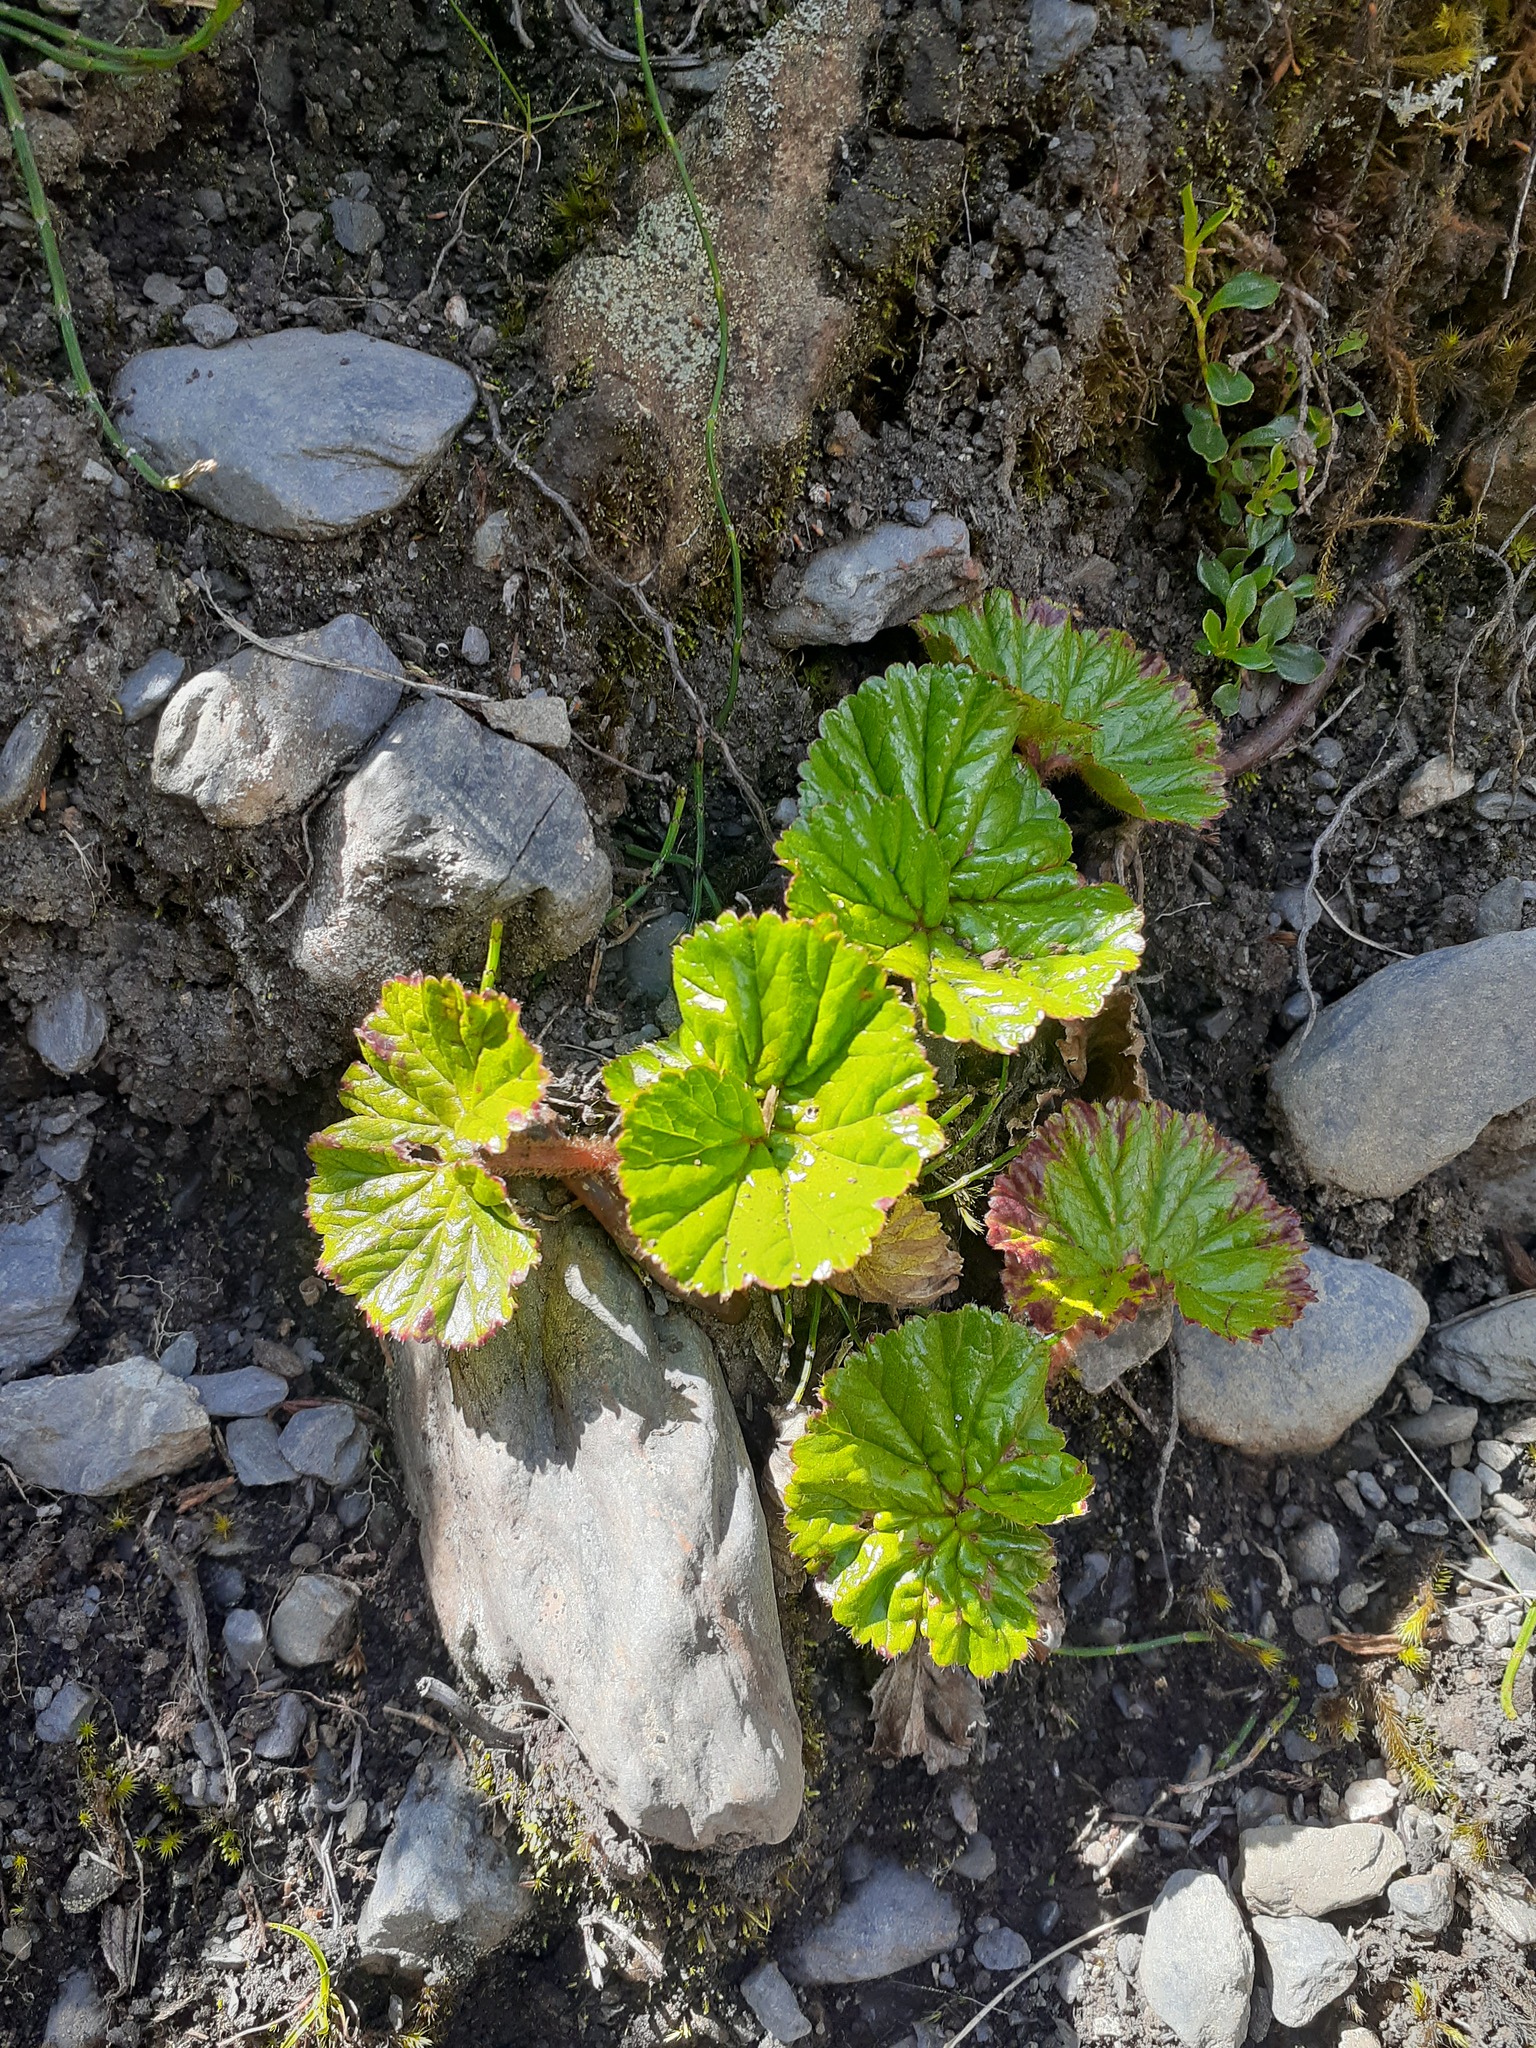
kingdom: Plantae
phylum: Tracheophyta
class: Magnoliopsida
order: Gunnerales
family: Gunneraceae
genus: Gunnera
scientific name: Gunnera magellanica
